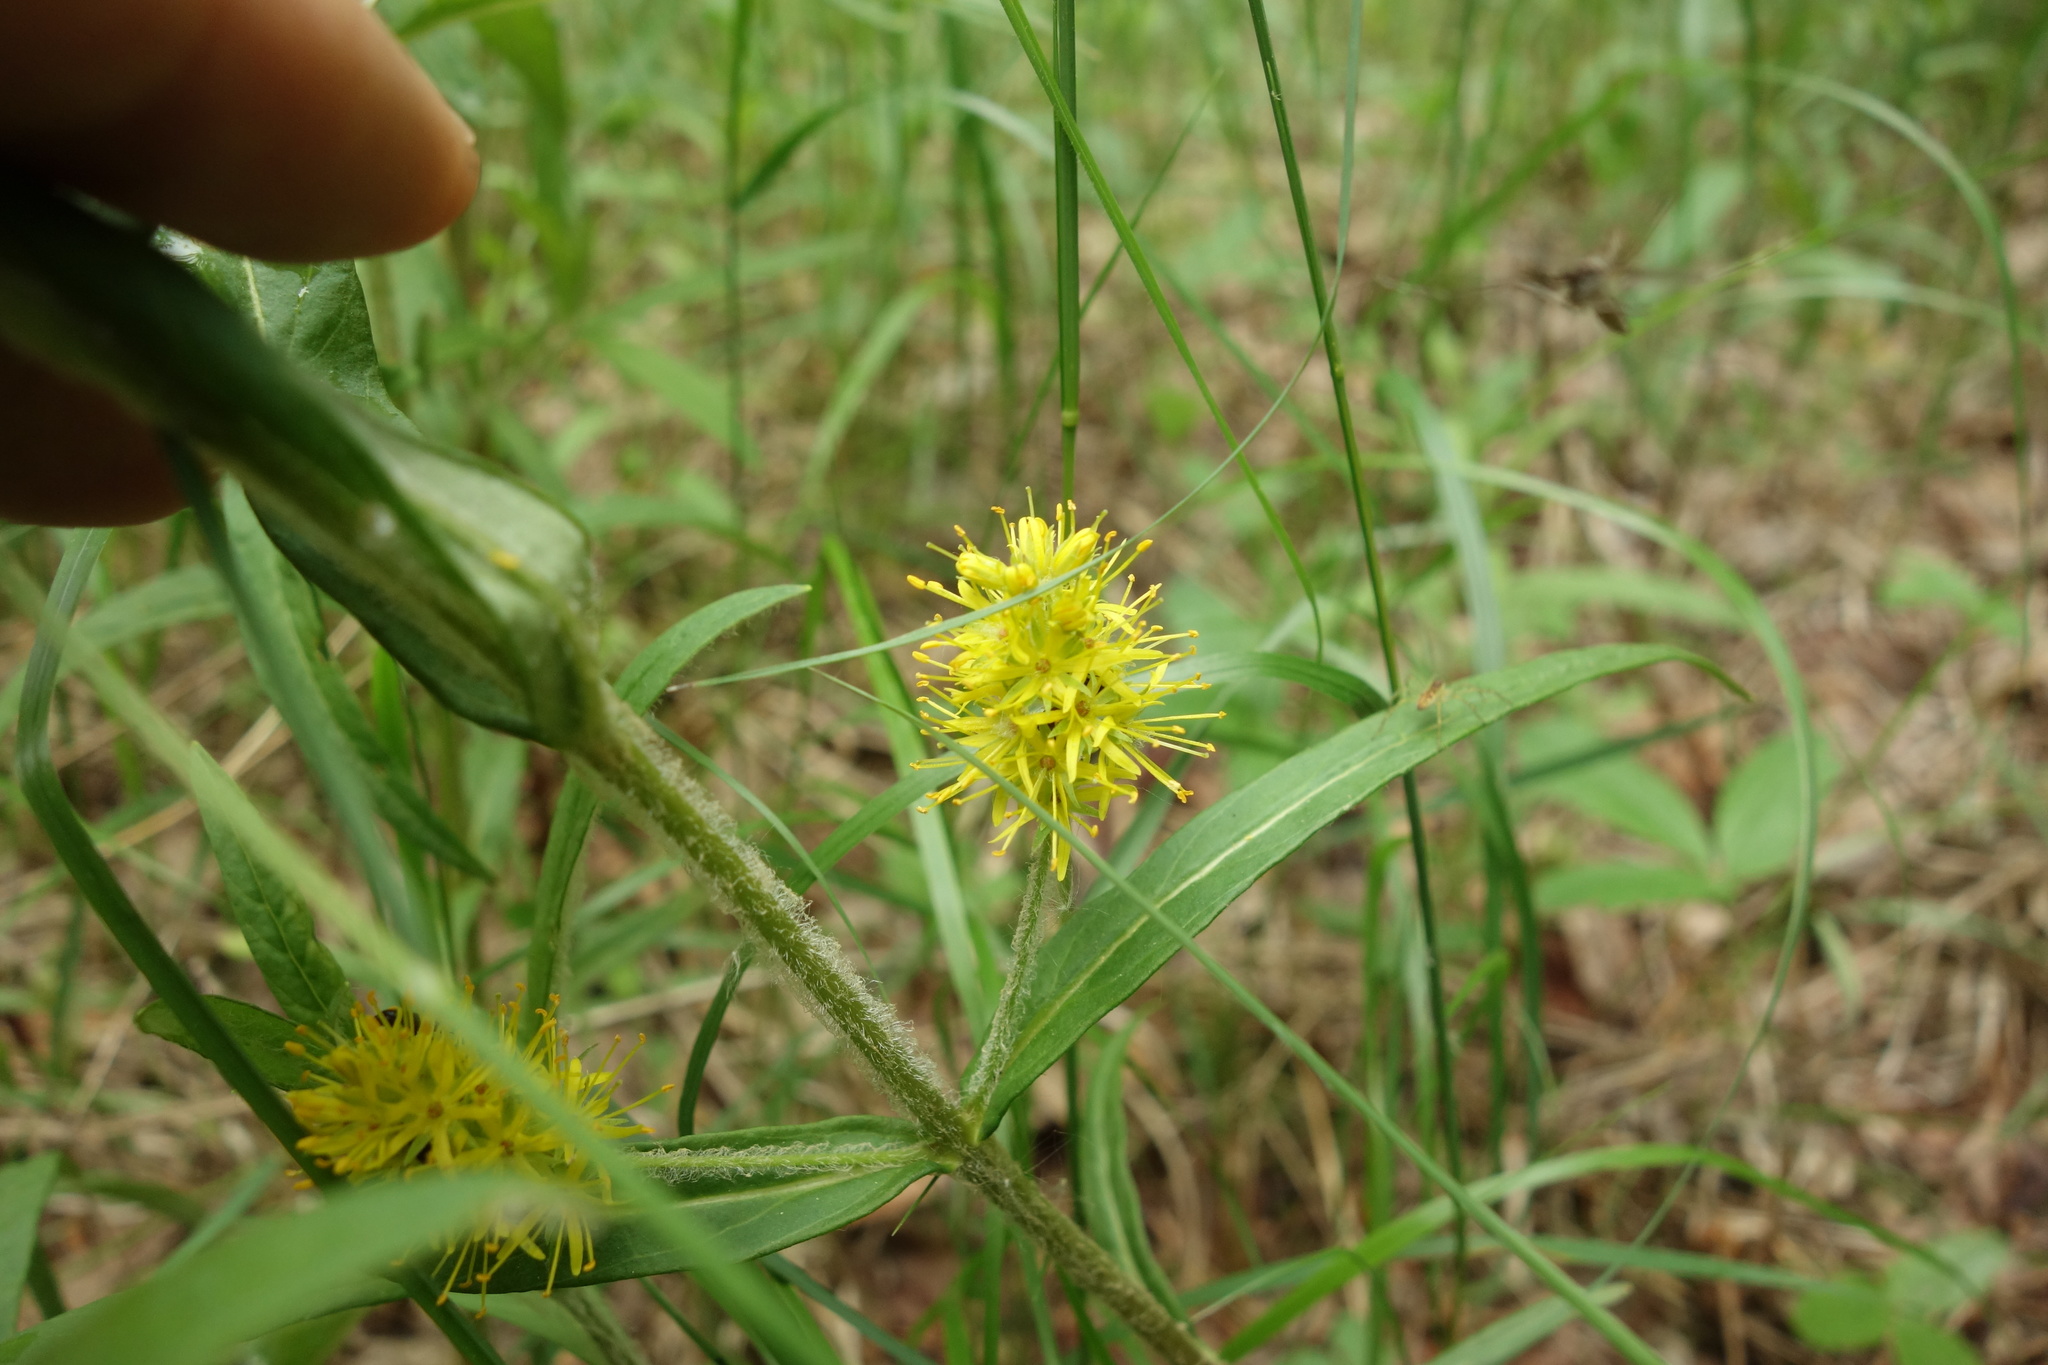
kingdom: Plantae
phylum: Tracheophyta
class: Magnoliopsida
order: Ericales
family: Primulaceae
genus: Lysimachia
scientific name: Lysimachia thyrsiflora
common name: Tufted loosestrife
